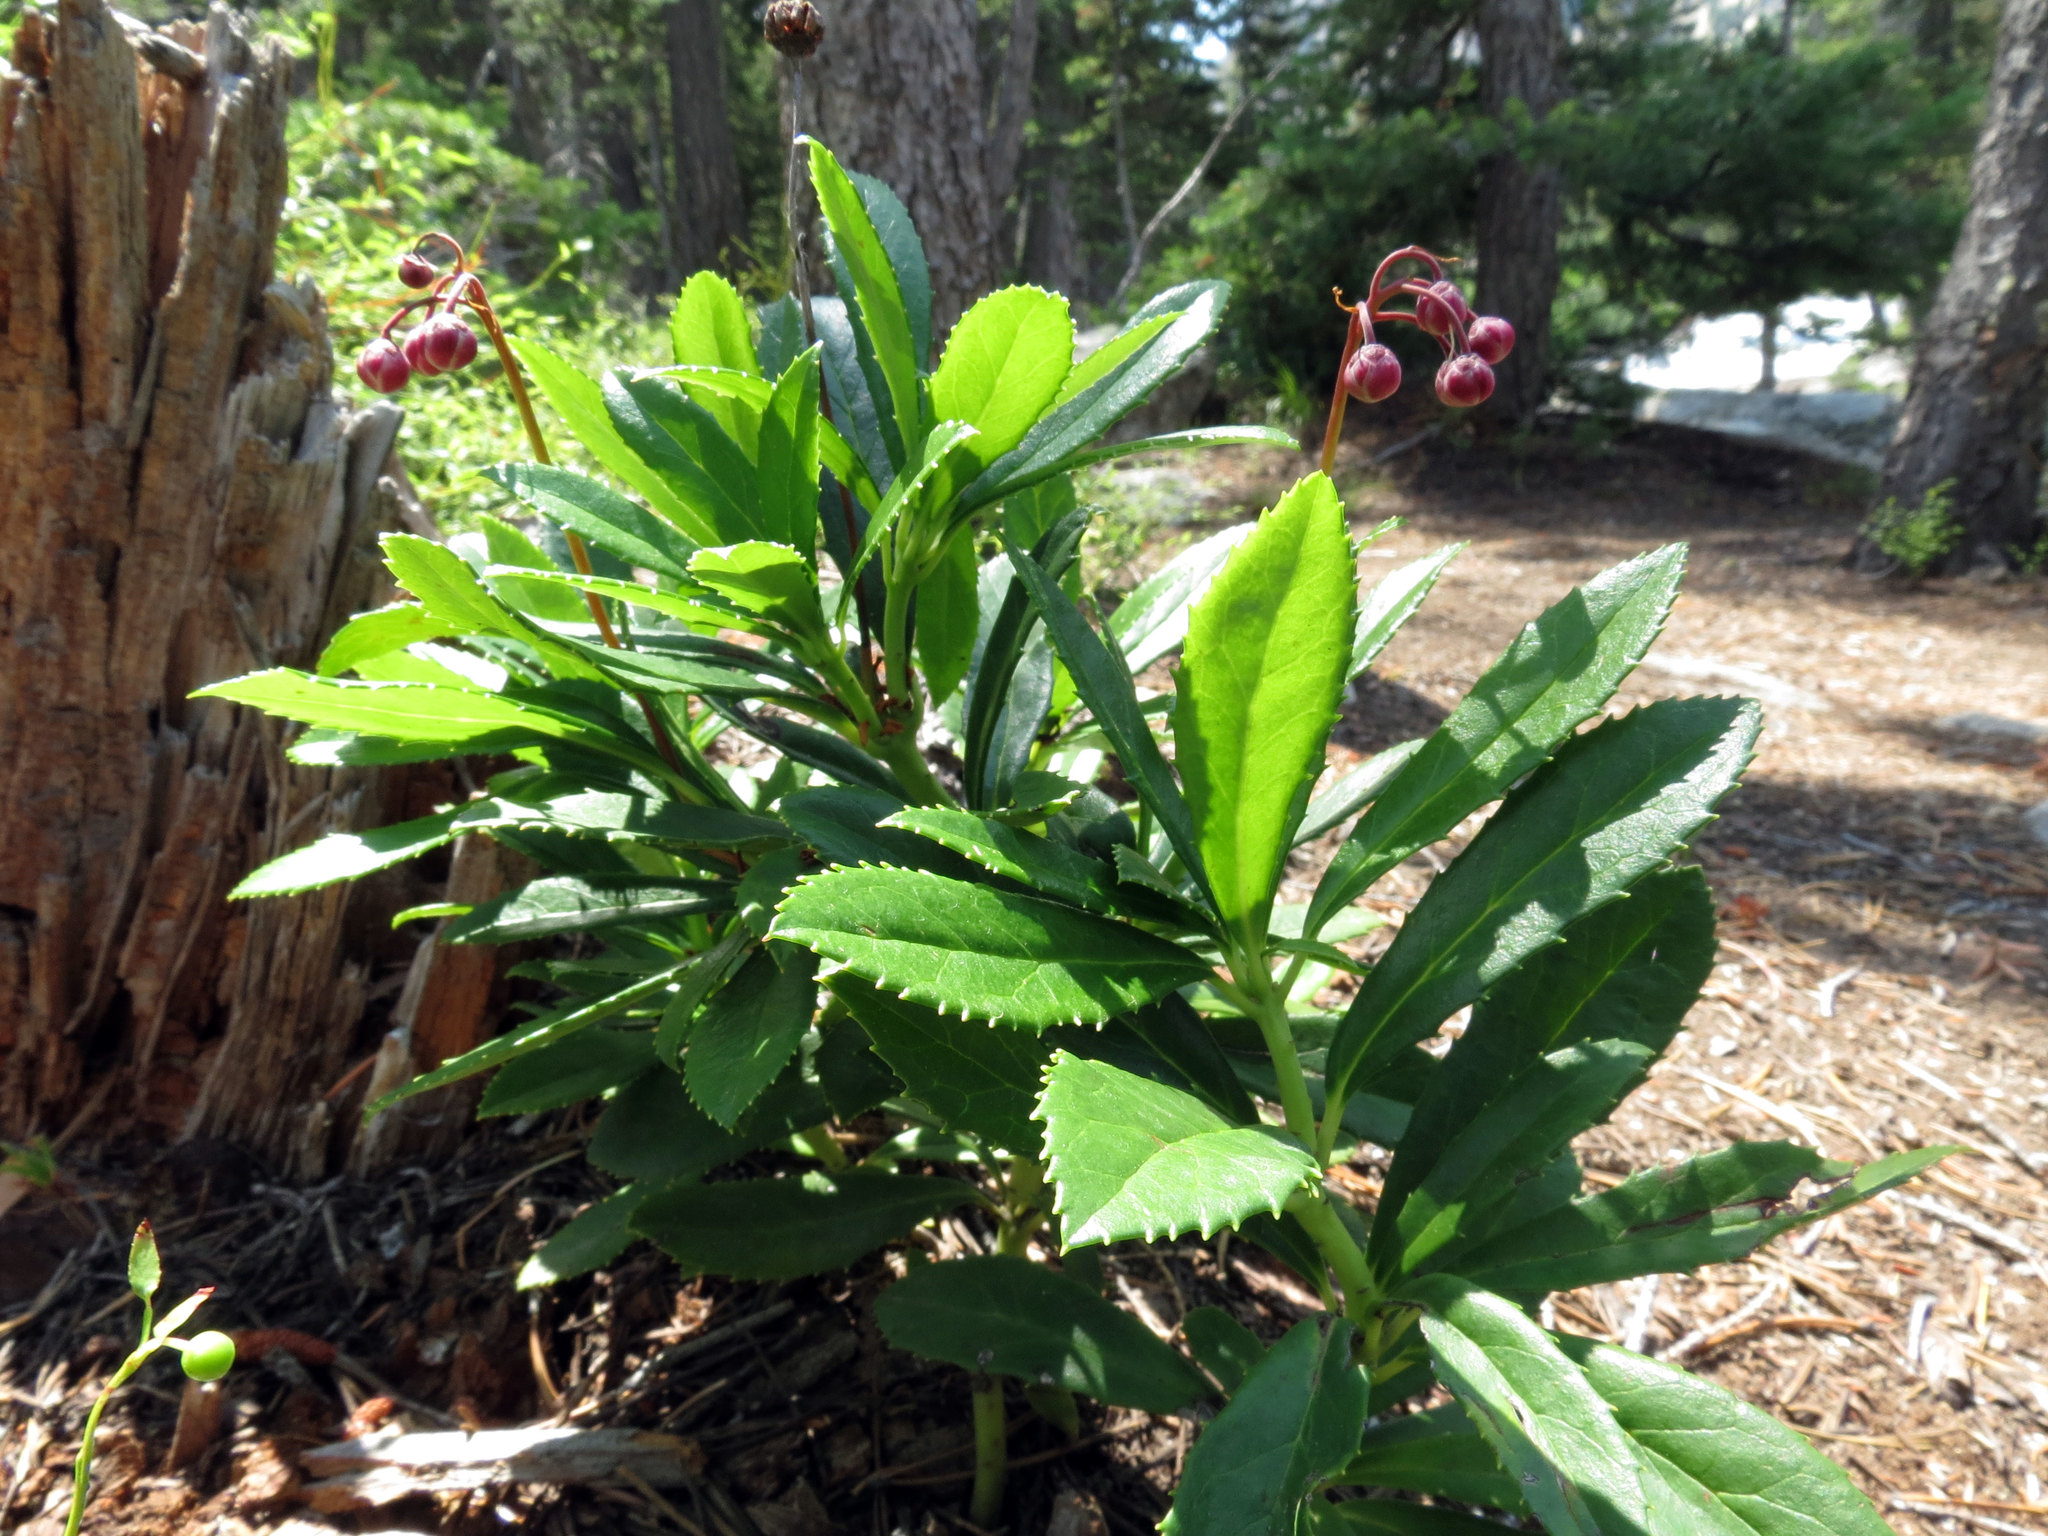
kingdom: Plantae
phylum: Tracheophyta
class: Magnoliopsida
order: Ericales
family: Ericaceae
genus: Chimaphila
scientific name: Chimaphila umbellata
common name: Pipsissewa
